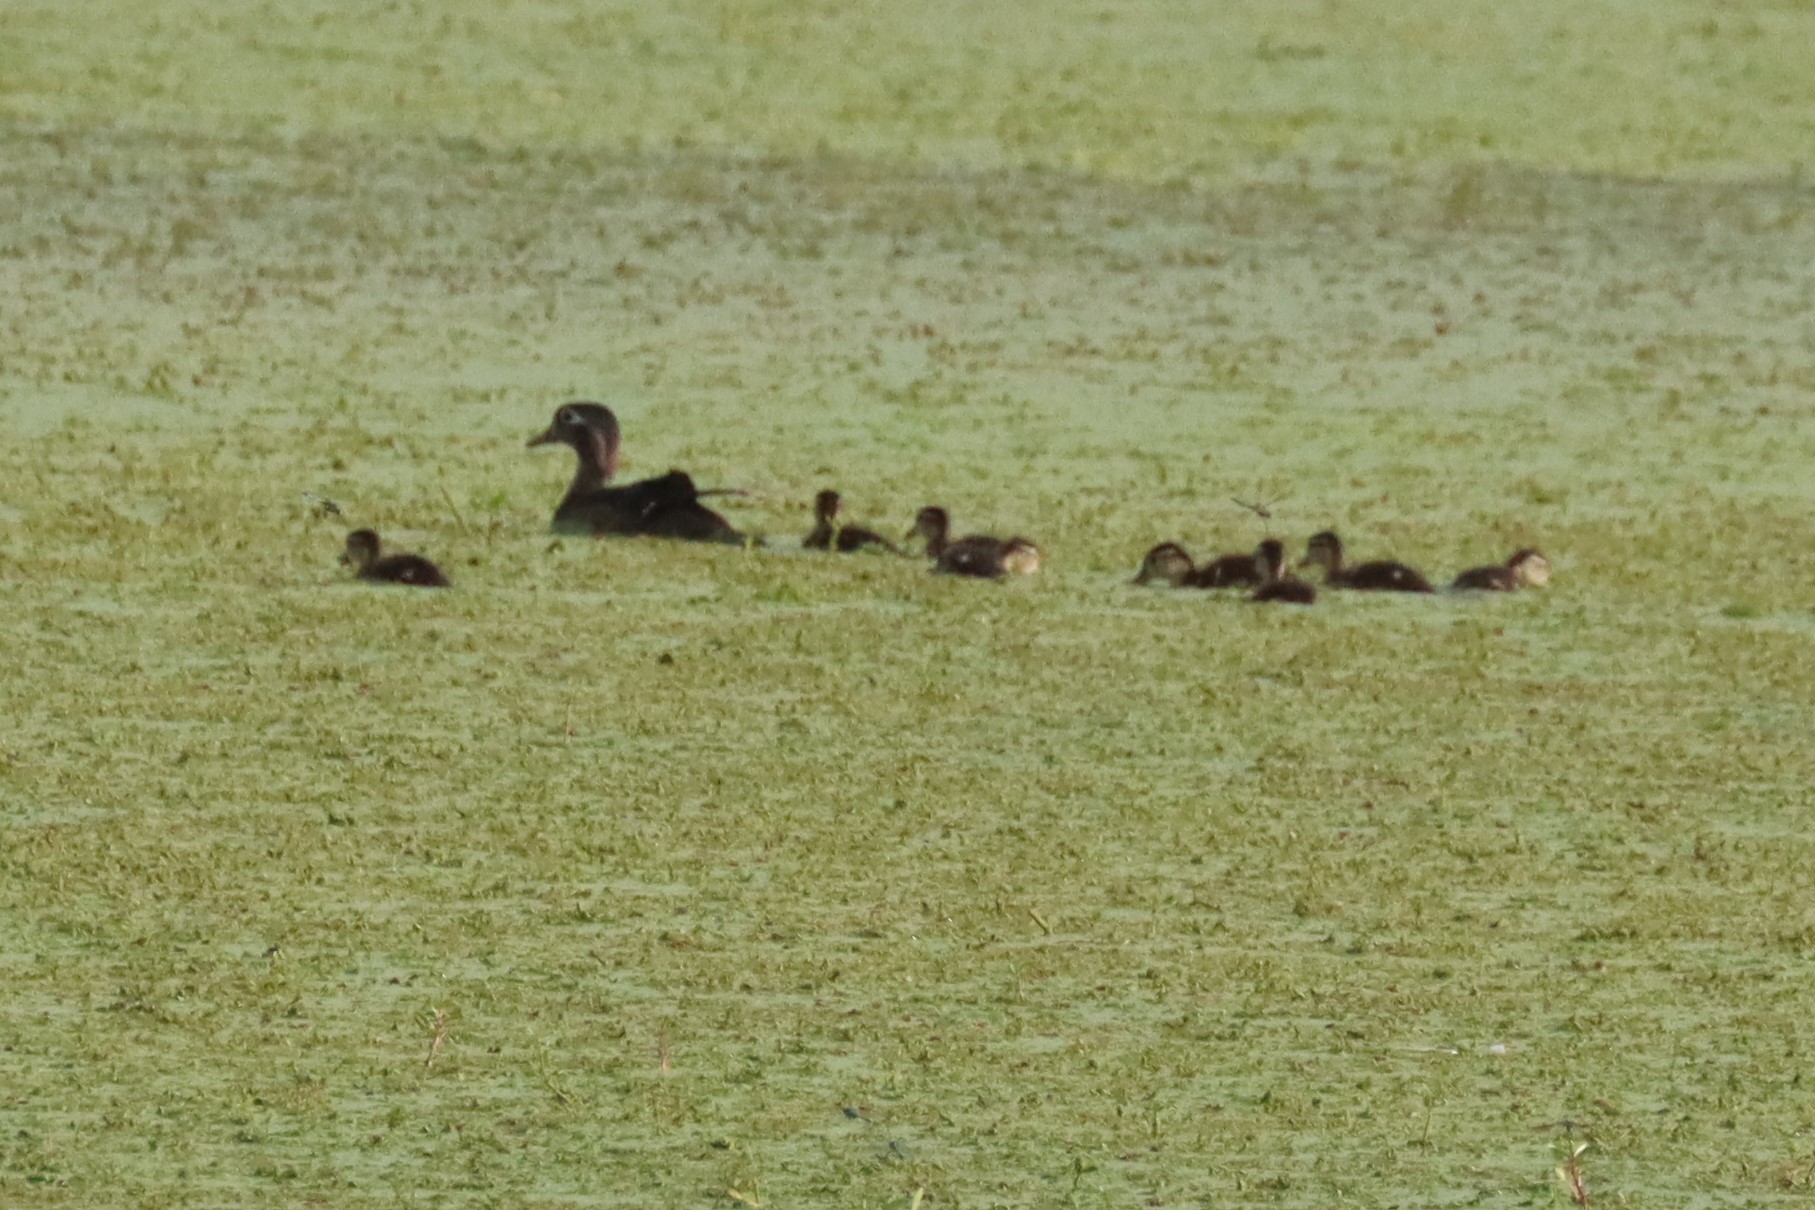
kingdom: Animalia
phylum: Chordata
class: Aves
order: Anseriformes
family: Anatidae
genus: Aix
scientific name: Aix sponsa
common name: Wood duck
